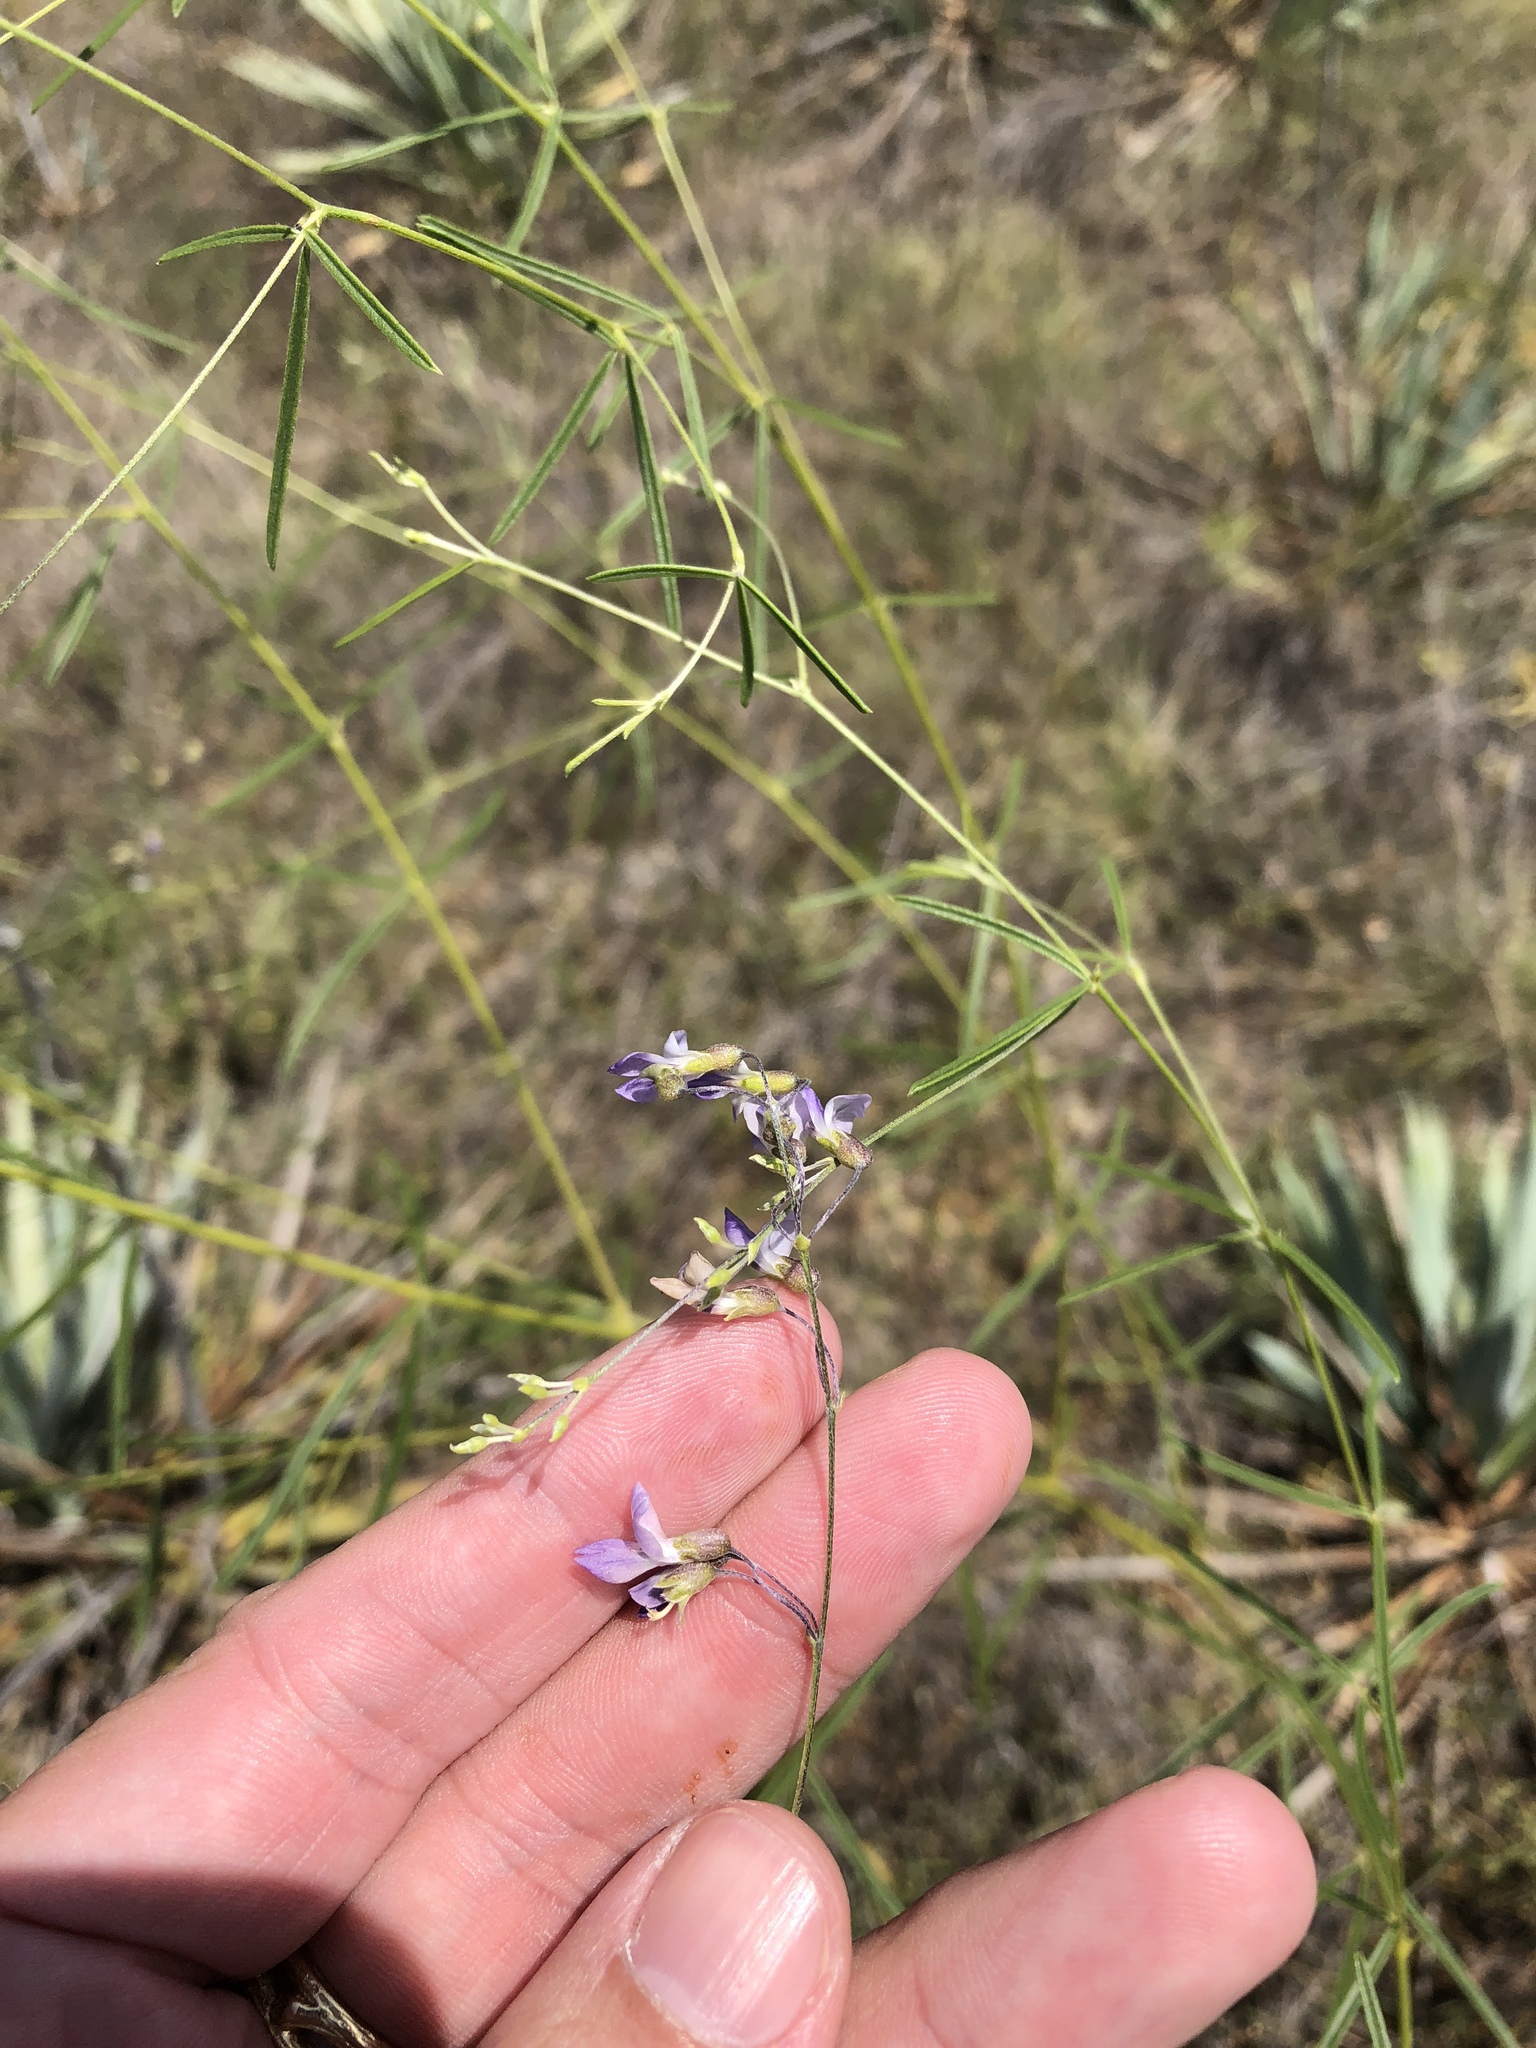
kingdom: Plantae
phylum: Tracheophyta
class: Magnoliopsida
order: Fabales
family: Fabaceae
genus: Pediomelum
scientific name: Pediomelum linearifolium
